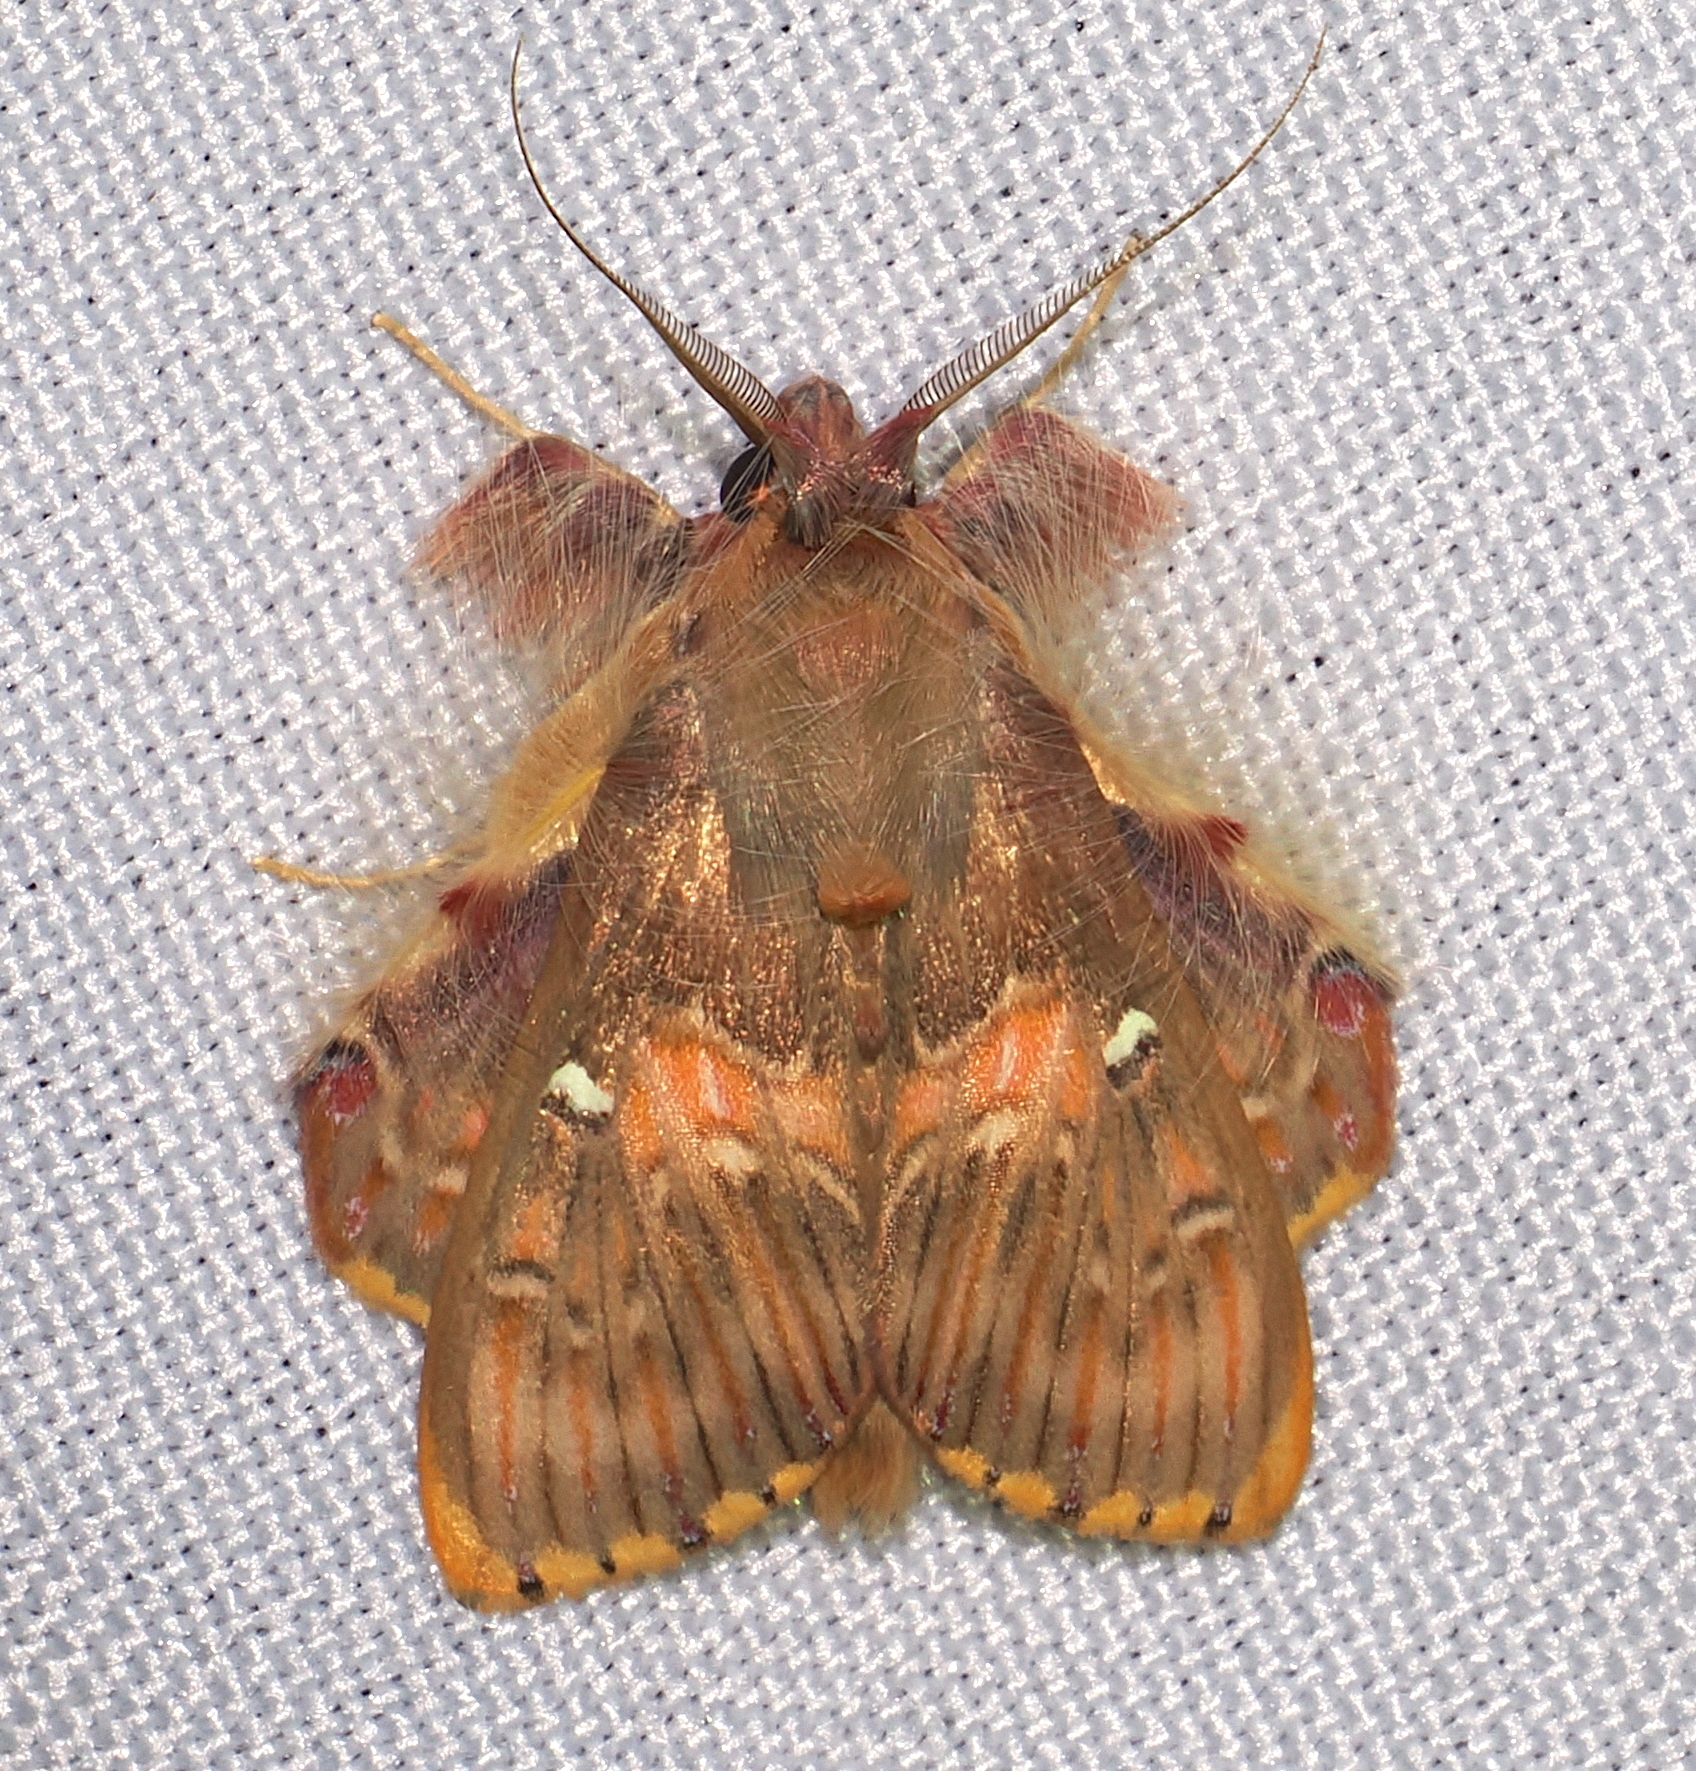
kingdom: Animalia
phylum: Arthropoda
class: Insecta
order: Lepidoptera
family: Erebidae
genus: Sosxetra
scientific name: Sosxetra grata
